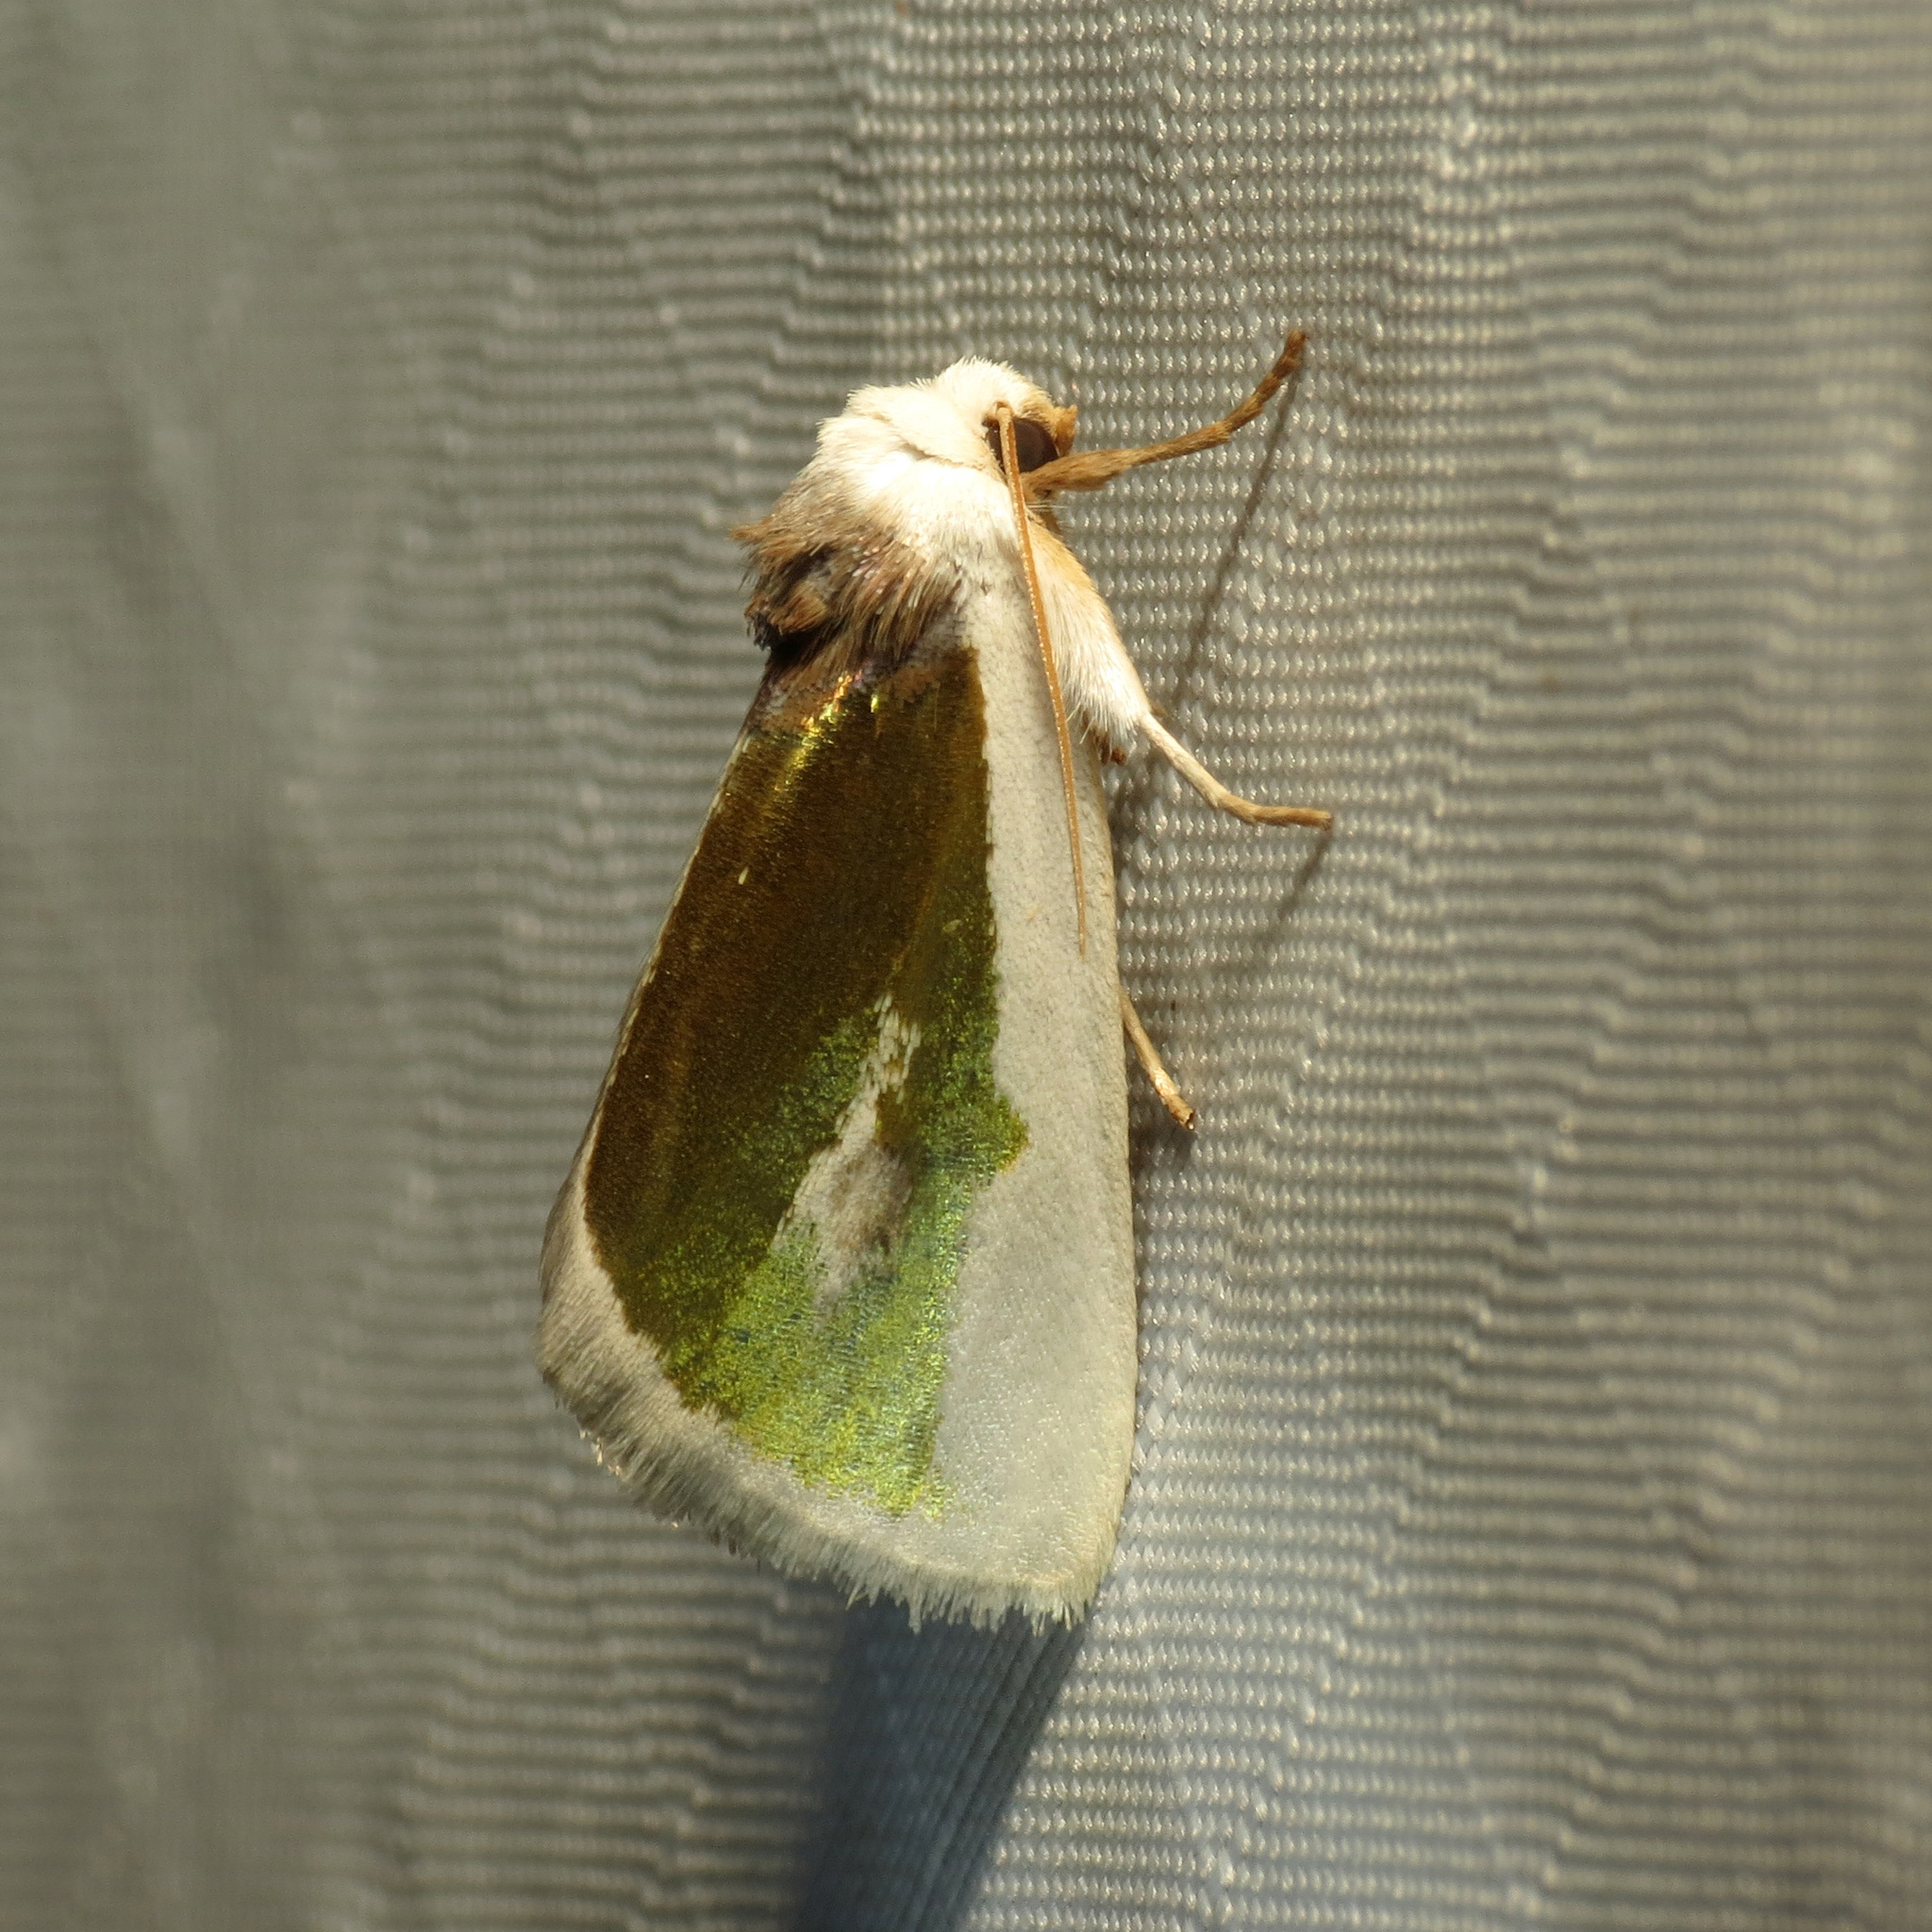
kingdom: Animalia
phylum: Arthropoda
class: Insecta
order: Lepidoptera
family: Noctuidae
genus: Neumoegenia
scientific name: Neumoegenia poetica
